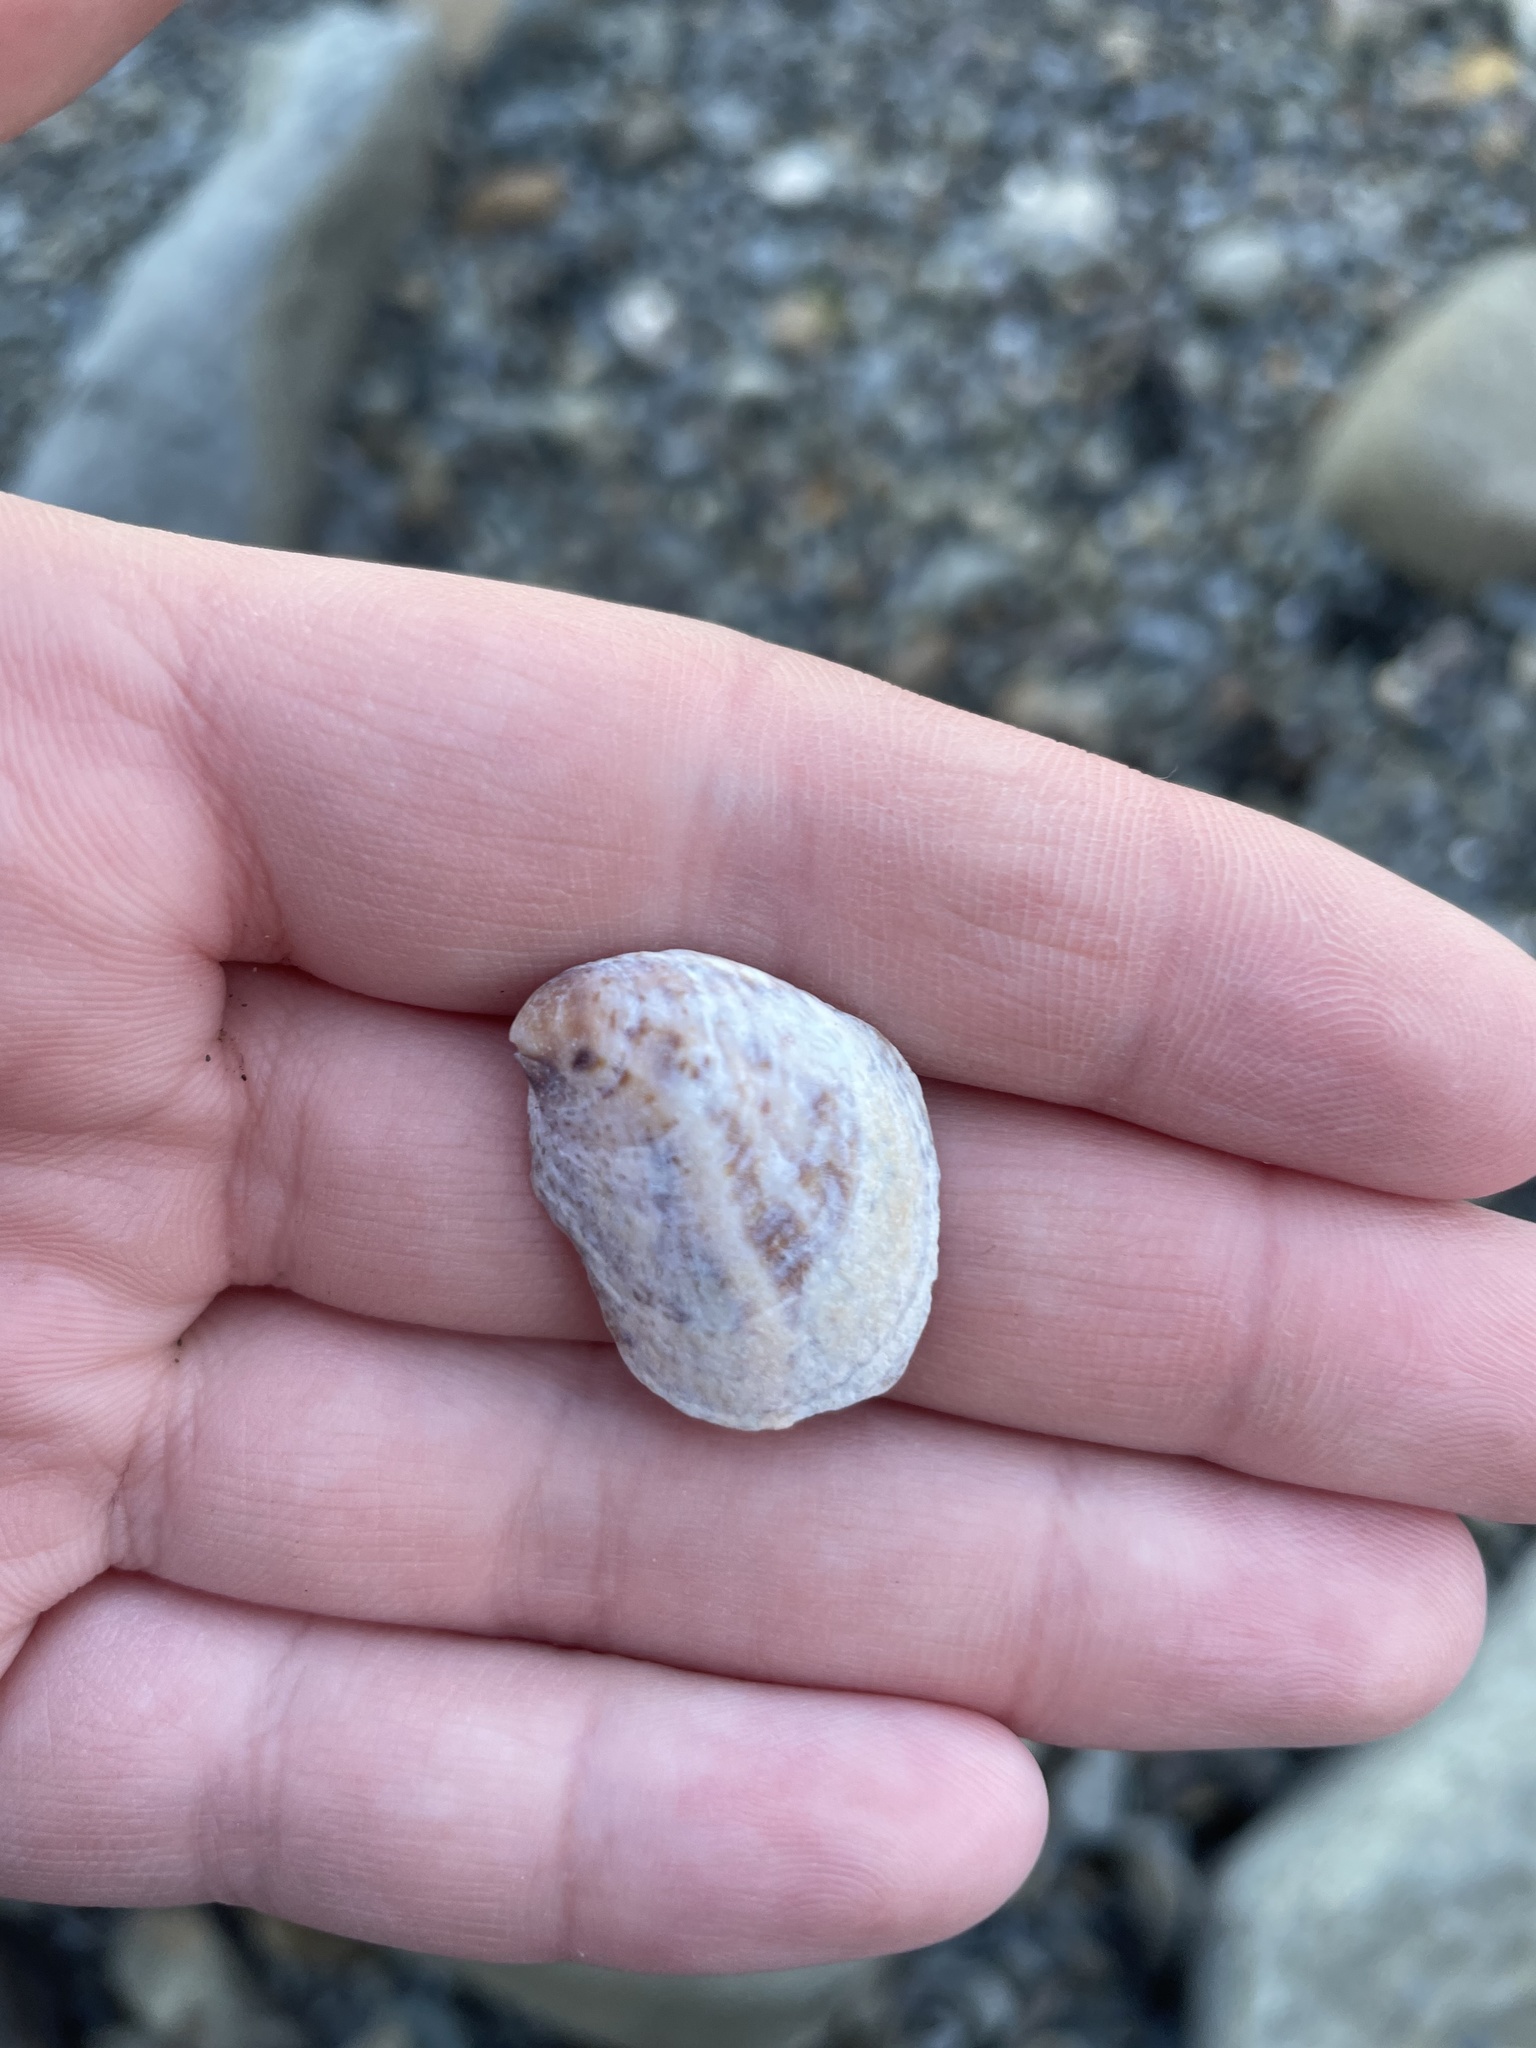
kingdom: Animalia
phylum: Mollusca
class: Gastropoda
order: Littorinimorpha
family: Calyptraeidae
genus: Crepidula
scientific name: Crepidula fornicata
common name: Slipper limpet
